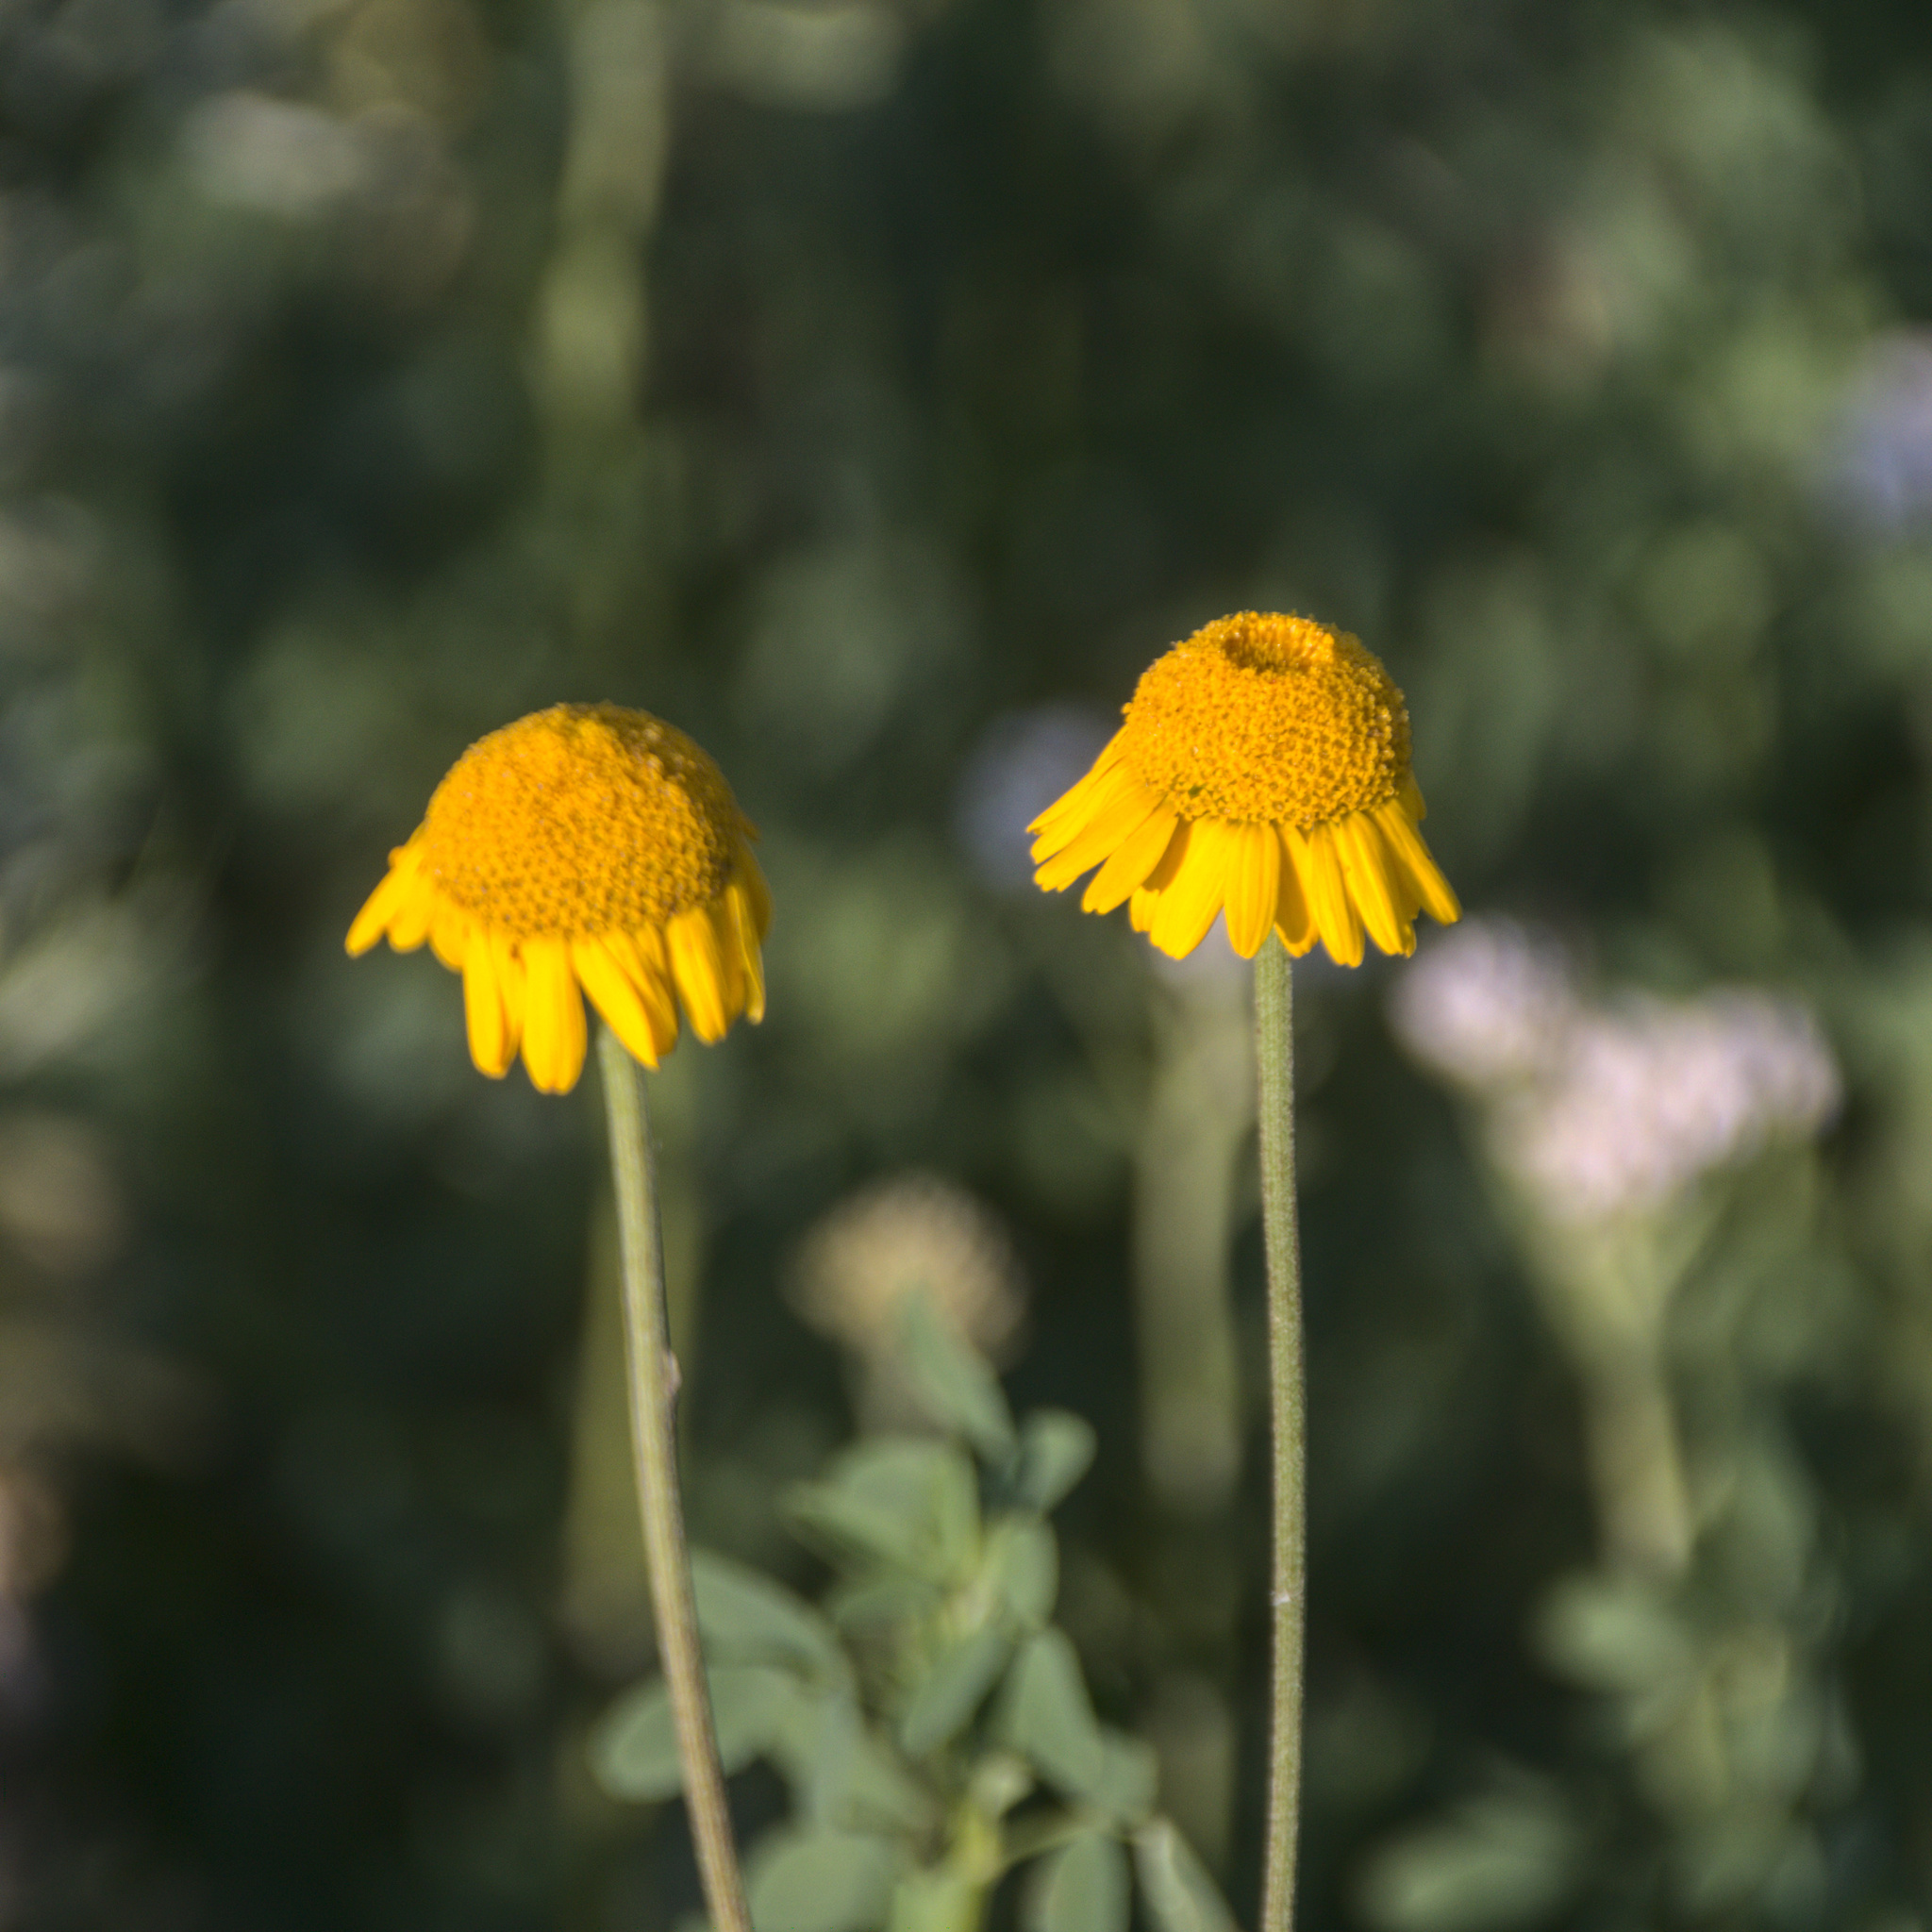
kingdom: Plantae
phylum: Tracheophyta
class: Magnoliopsida
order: Asterales
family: Asteraceae
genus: Cota
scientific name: Cota tinctoria
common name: Golden chamomile
